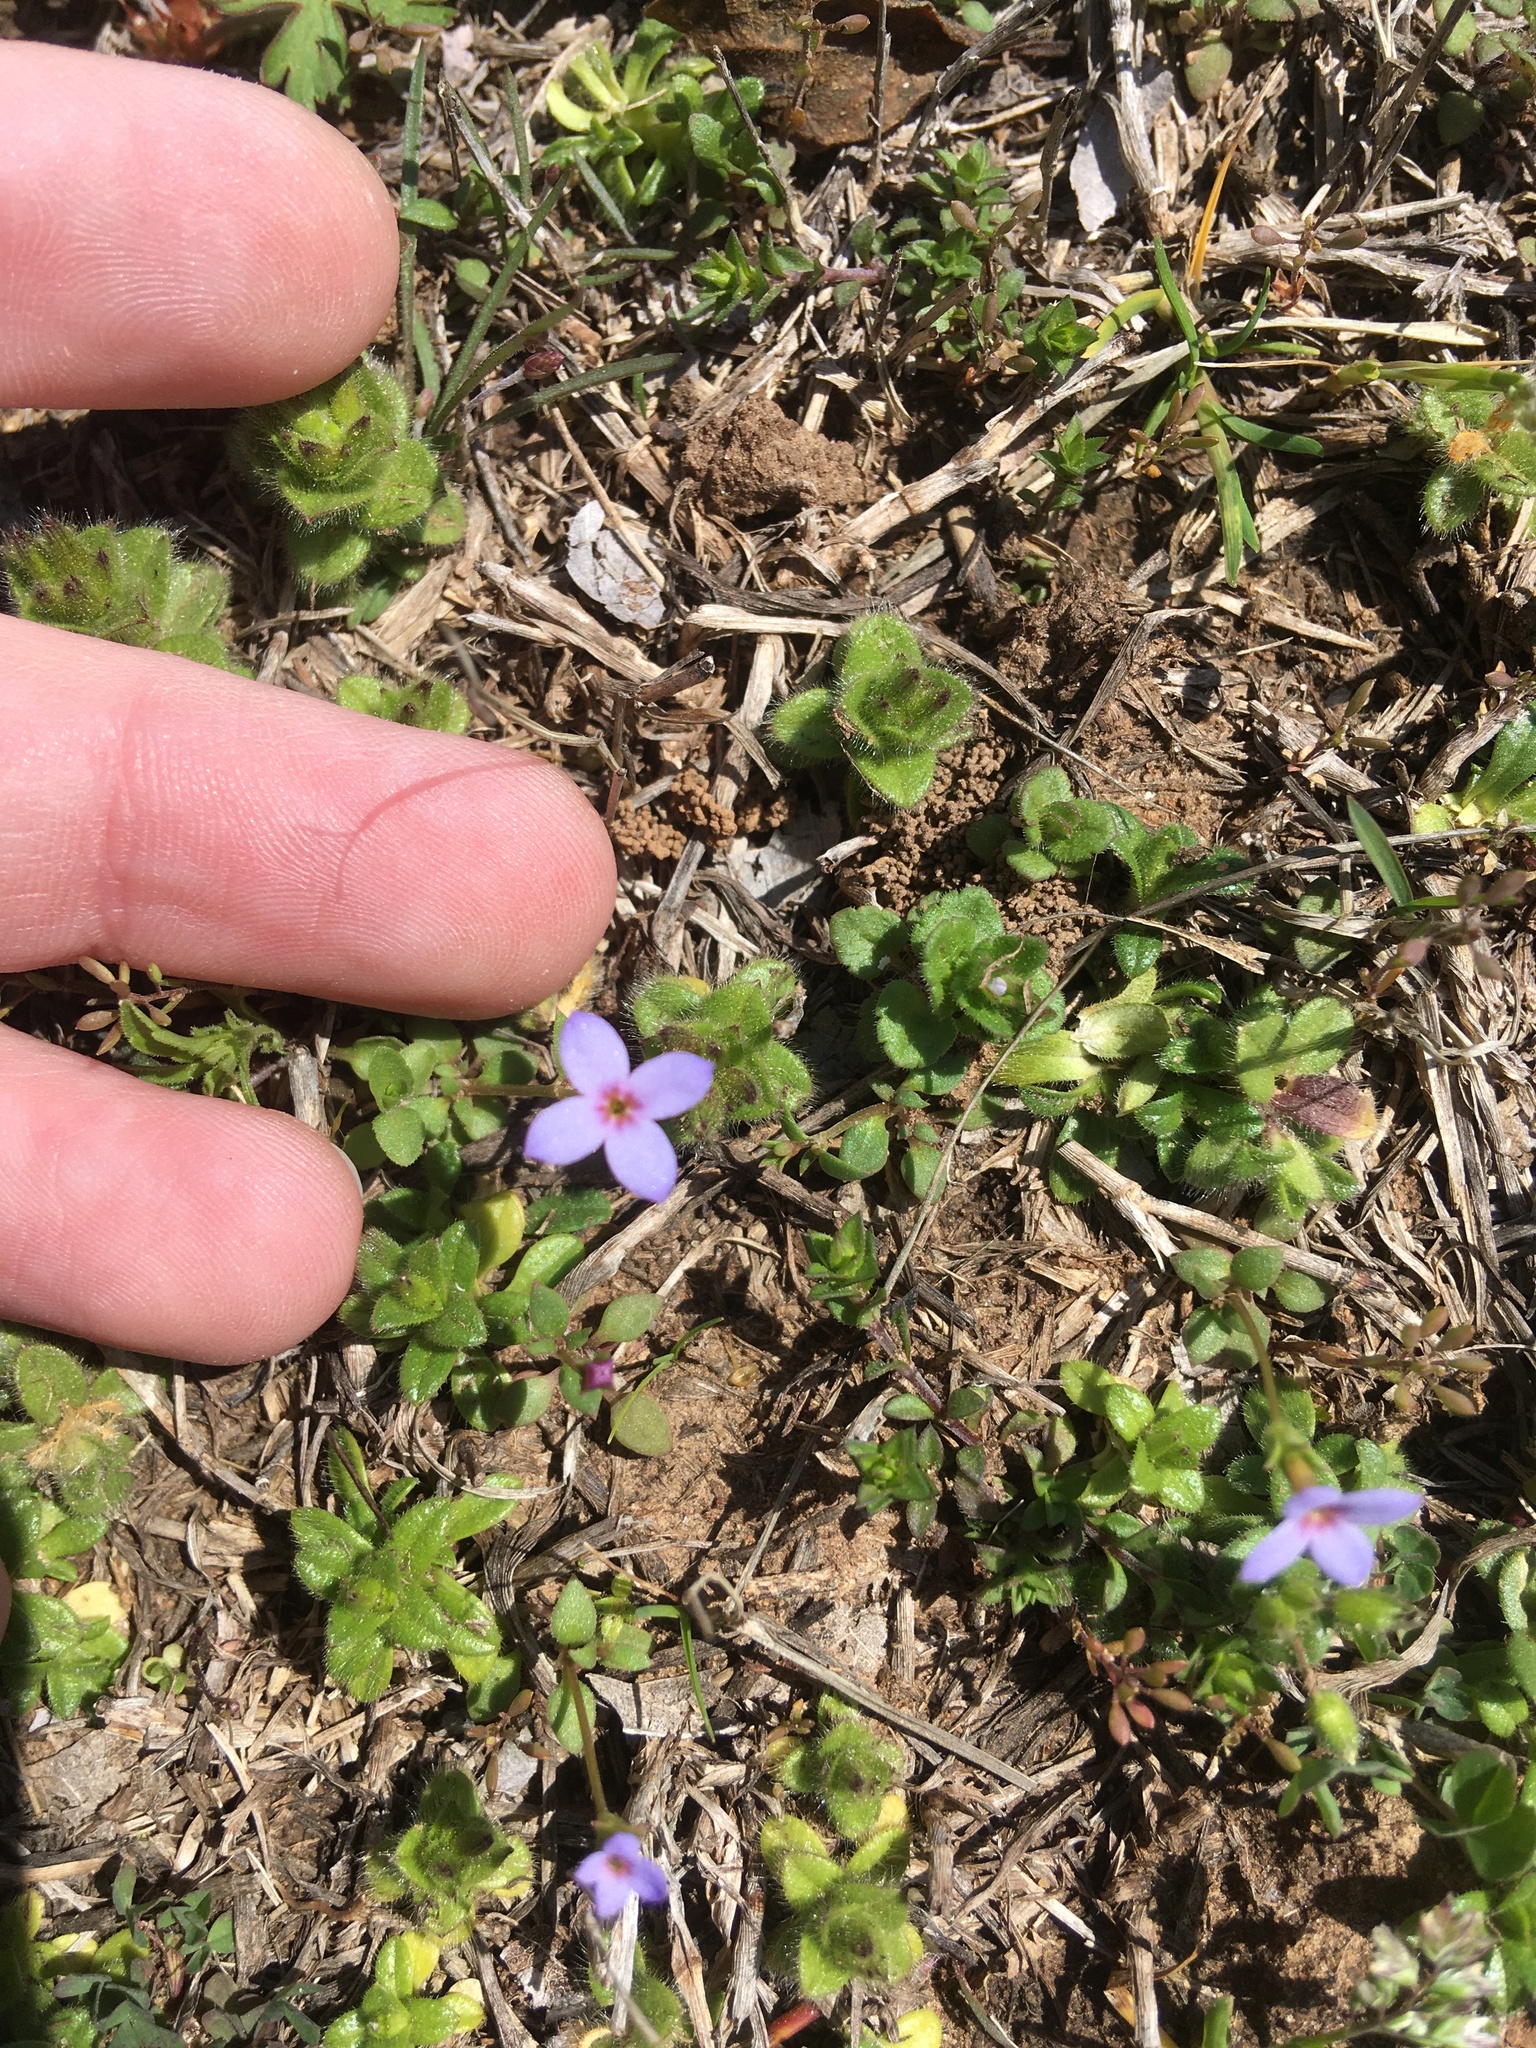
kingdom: Plantae
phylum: Tracheophyta
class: Magnoliopsida
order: Gentianales
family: Rubiaceae
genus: Houstonia
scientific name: Houstonia pusilla
